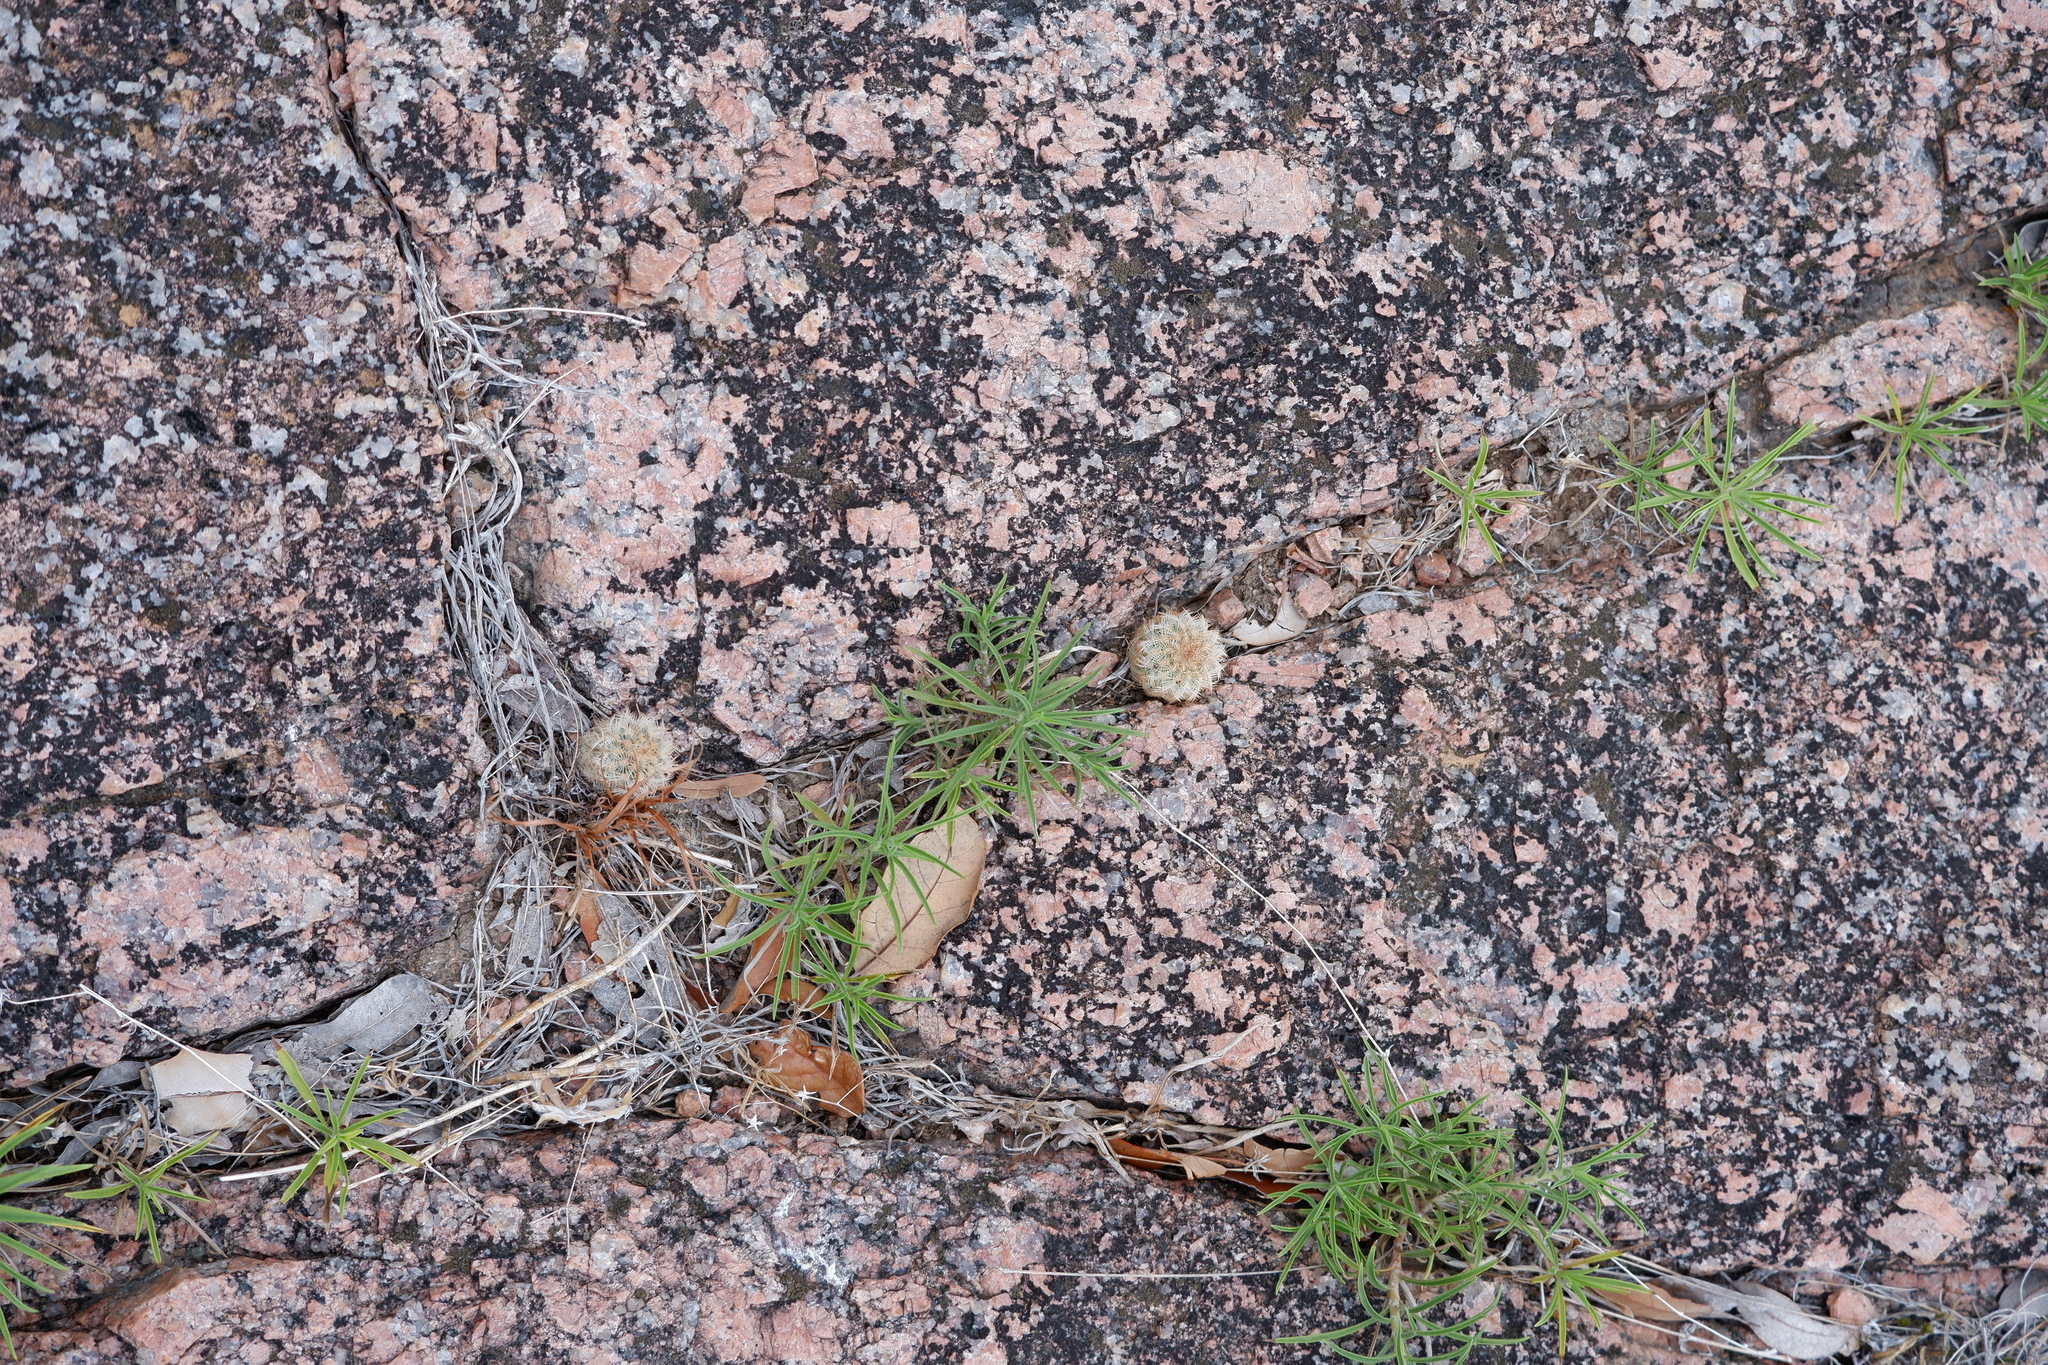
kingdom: Plantae
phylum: Tracheophyta
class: Magnoliopsida
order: Caryophyllales
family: Cactaceae
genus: Echinocereus
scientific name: Echinocereus reichenbachii
